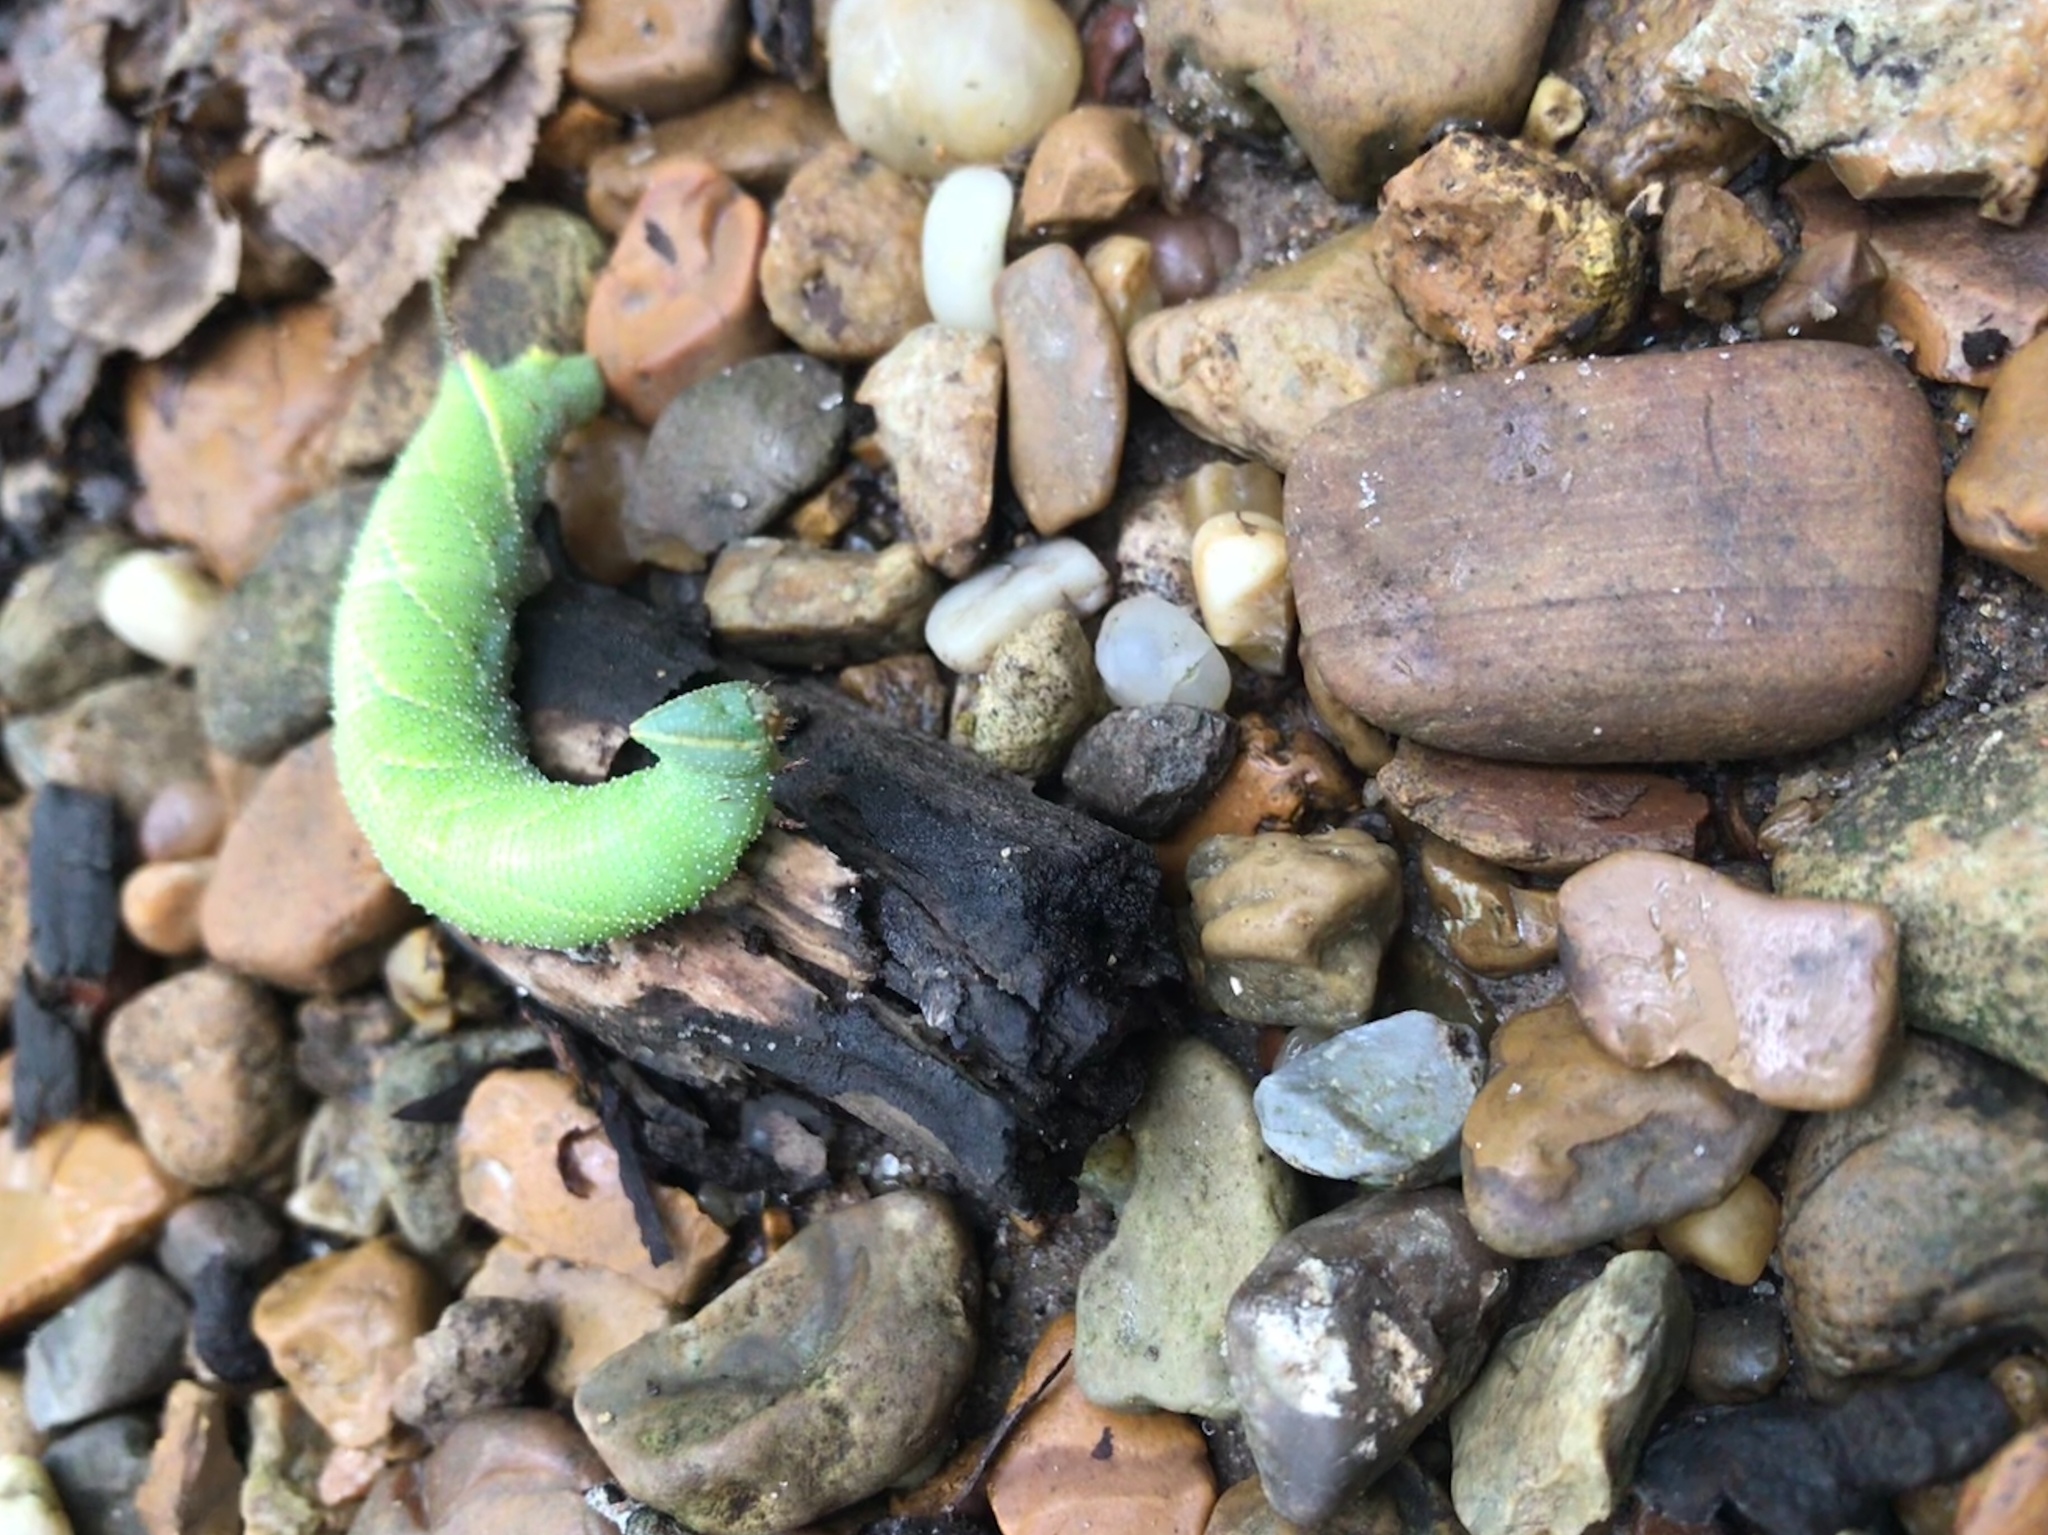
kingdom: Animalia
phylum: Arthropoda
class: Insecta
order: Lepidoptera
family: Sphingidae
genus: Amorpha
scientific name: Amorpha juglandis
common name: Walnut sphinx
